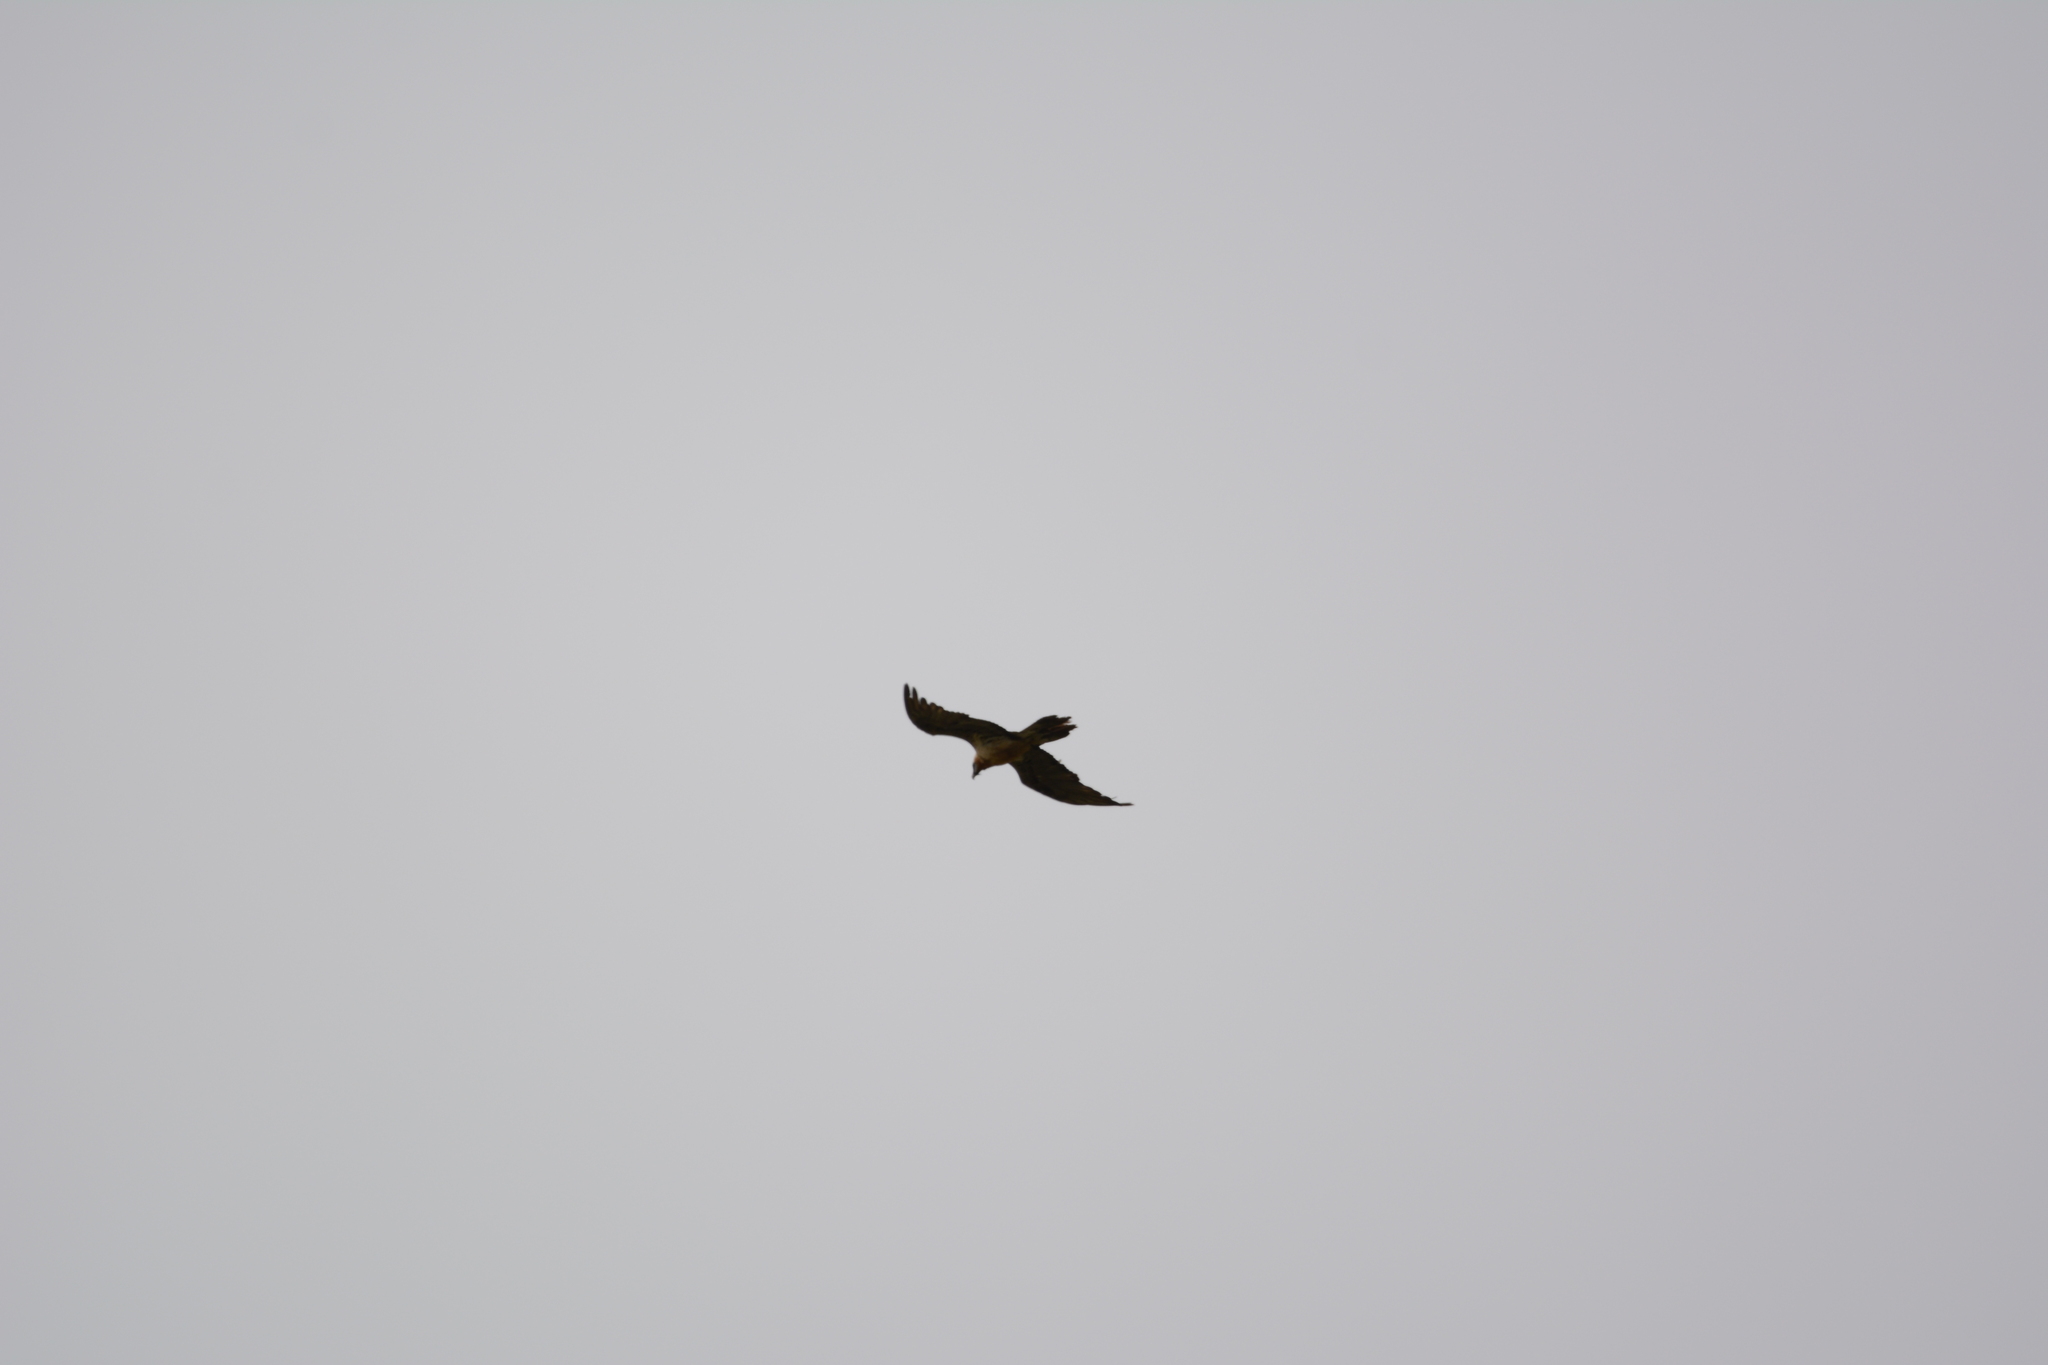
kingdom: Animalia
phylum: Chordata
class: Aves
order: Accipitriformes
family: Accipitridae
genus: Gypaetus
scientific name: Gypaetus barbatus
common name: Bearded vulture
